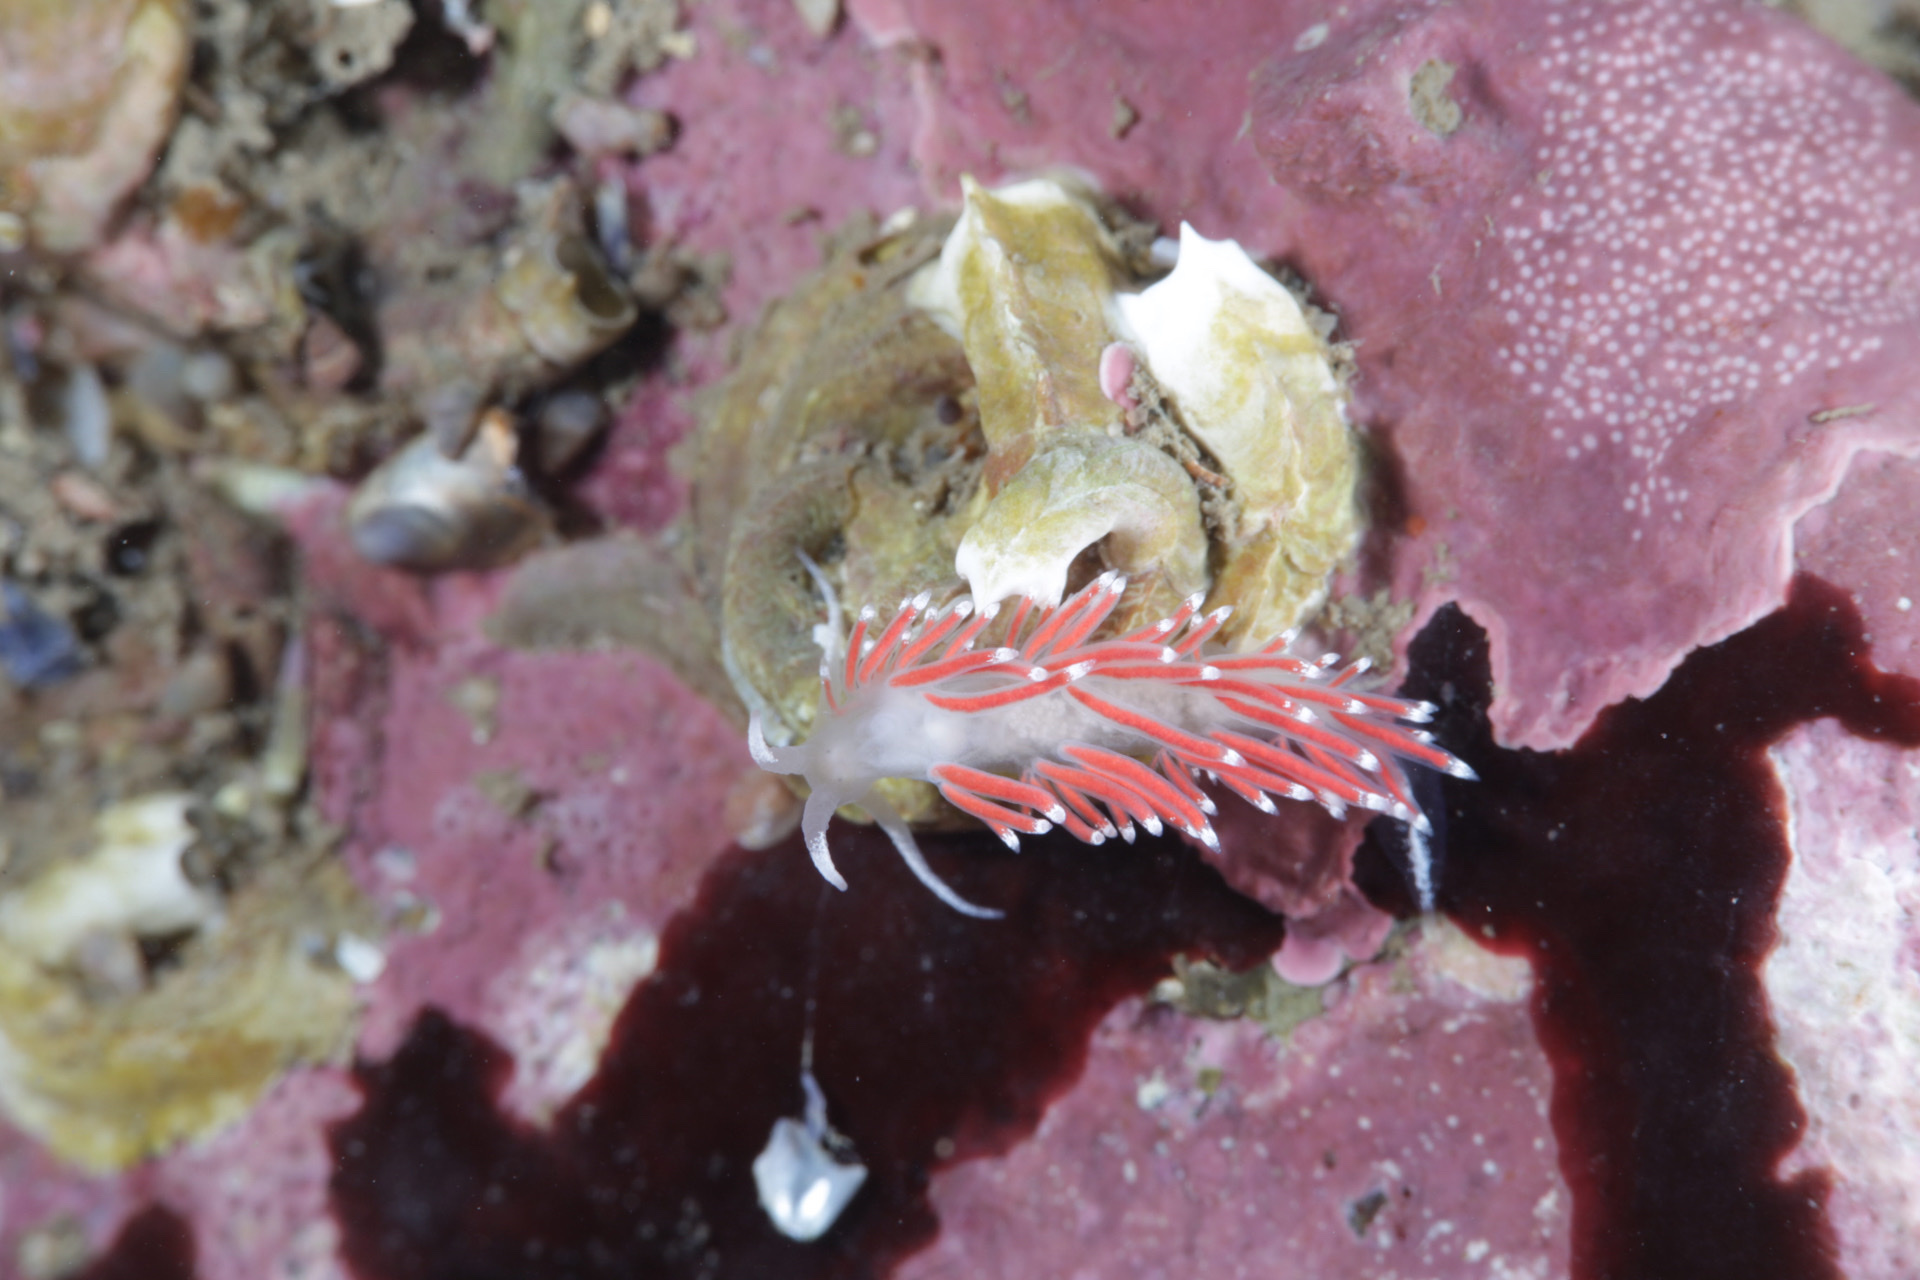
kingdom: Animalia
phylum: Mollusca
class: Gastropoda
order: Nudibranchia
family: Coryphellidae
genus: Coryphella
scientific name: Coryphella gracilis
